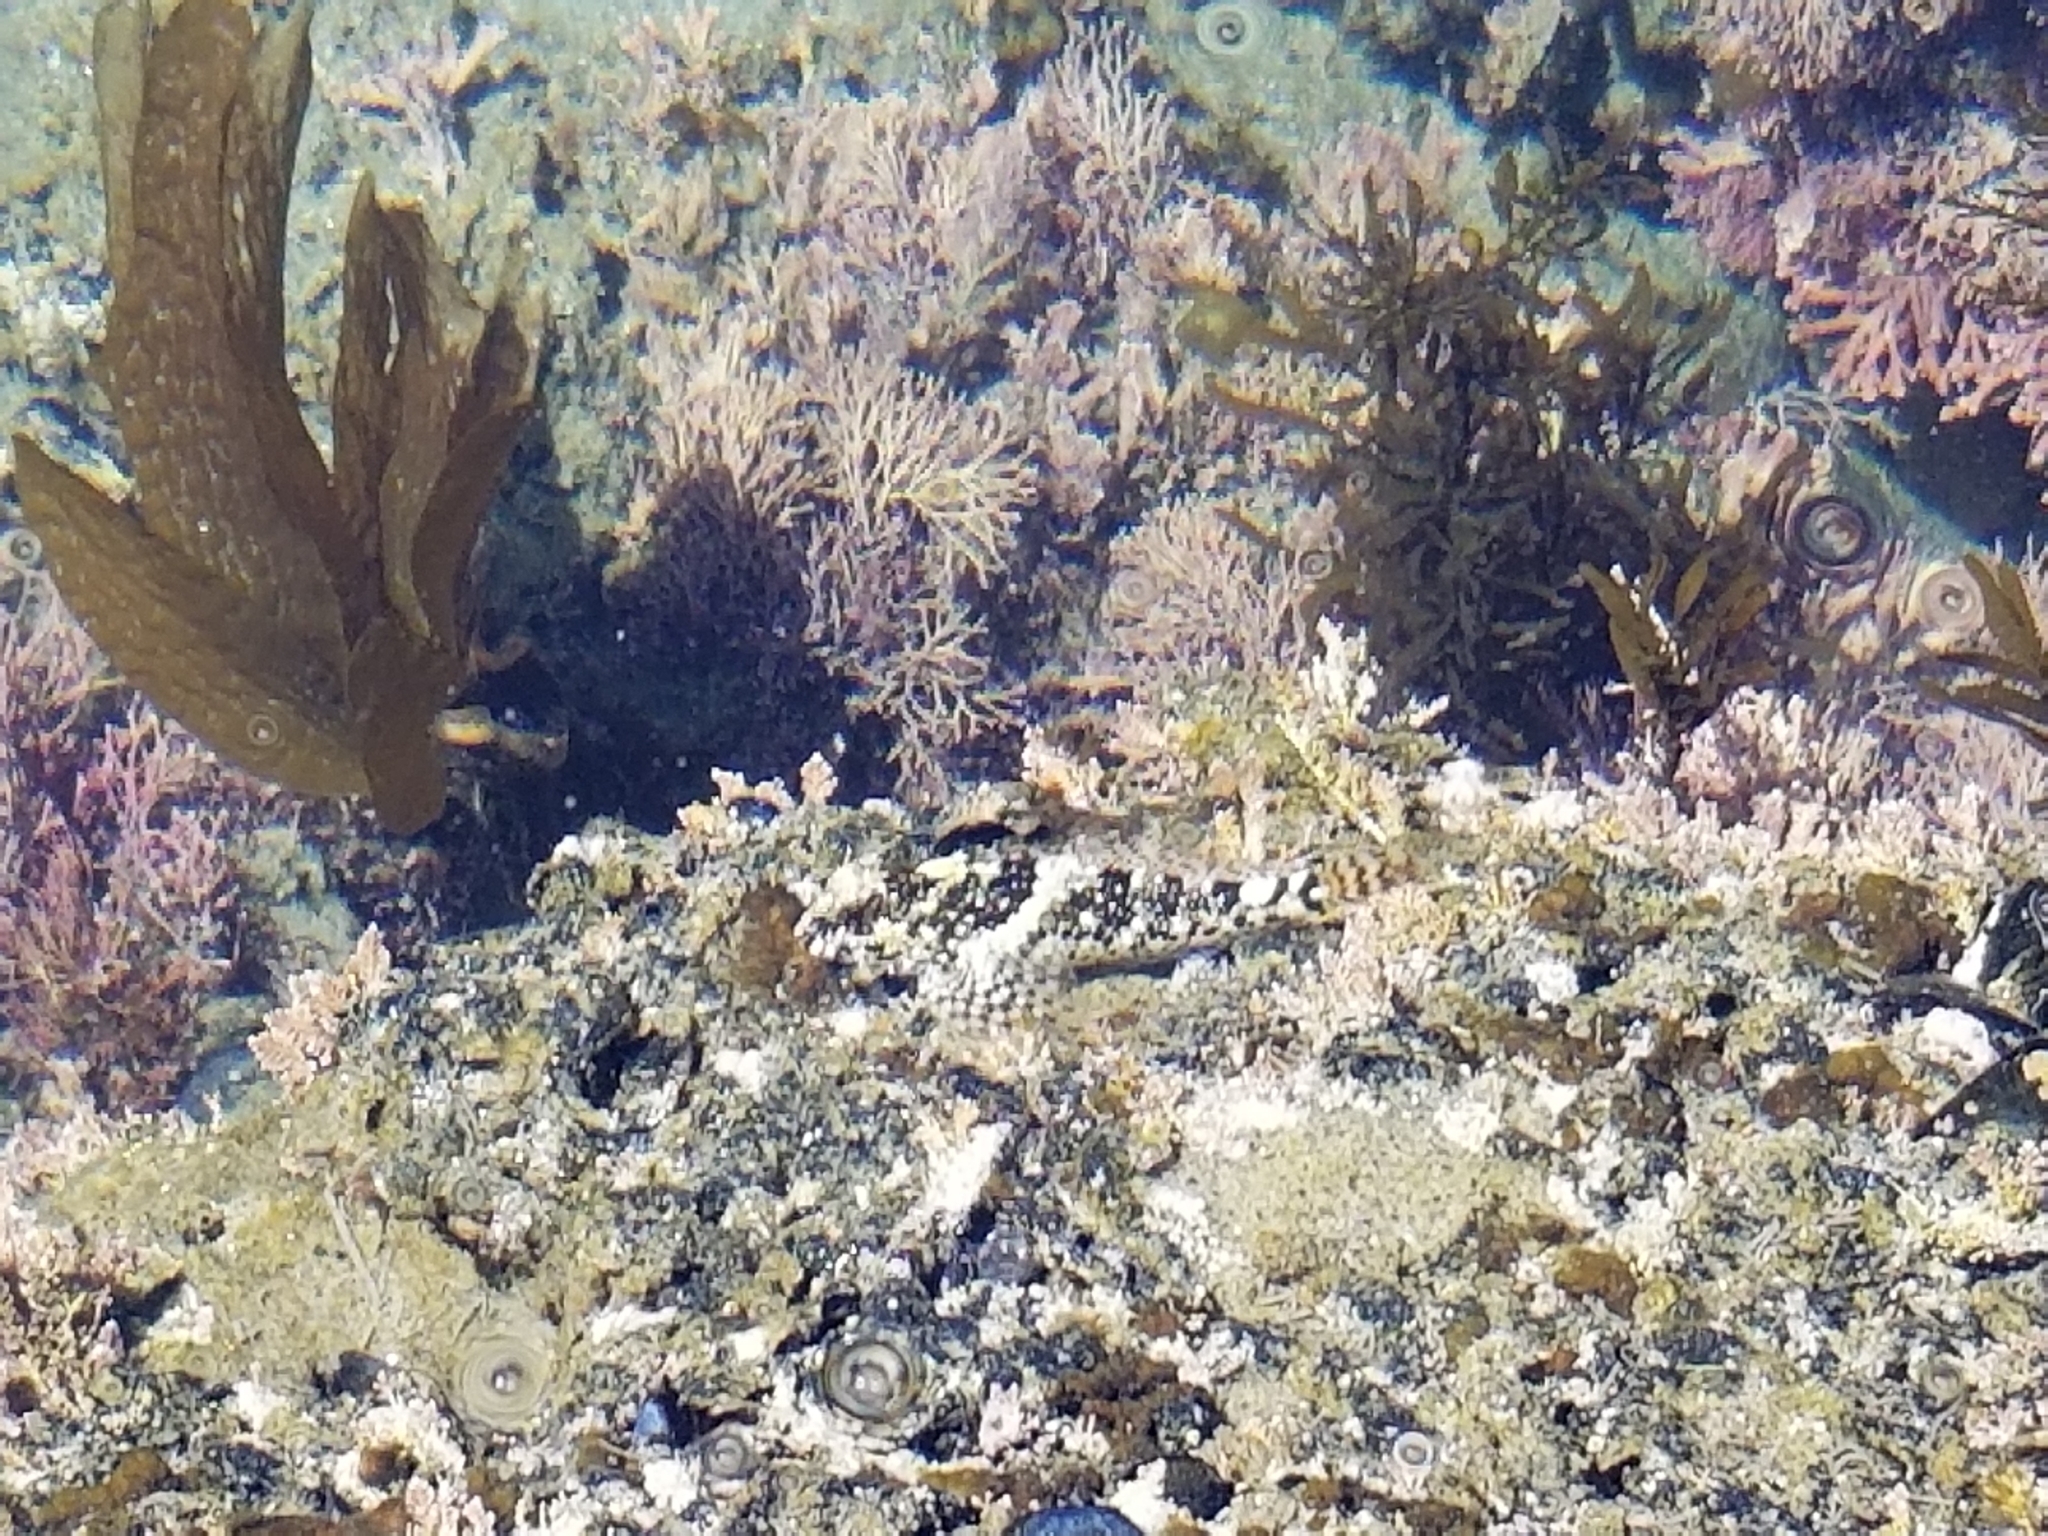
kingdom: Animalia
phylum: Chordata
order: Scorpaeniformes
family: Cottidae
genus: Clinocottus
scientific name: Clinocottus analis
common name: Woolly sculpin
